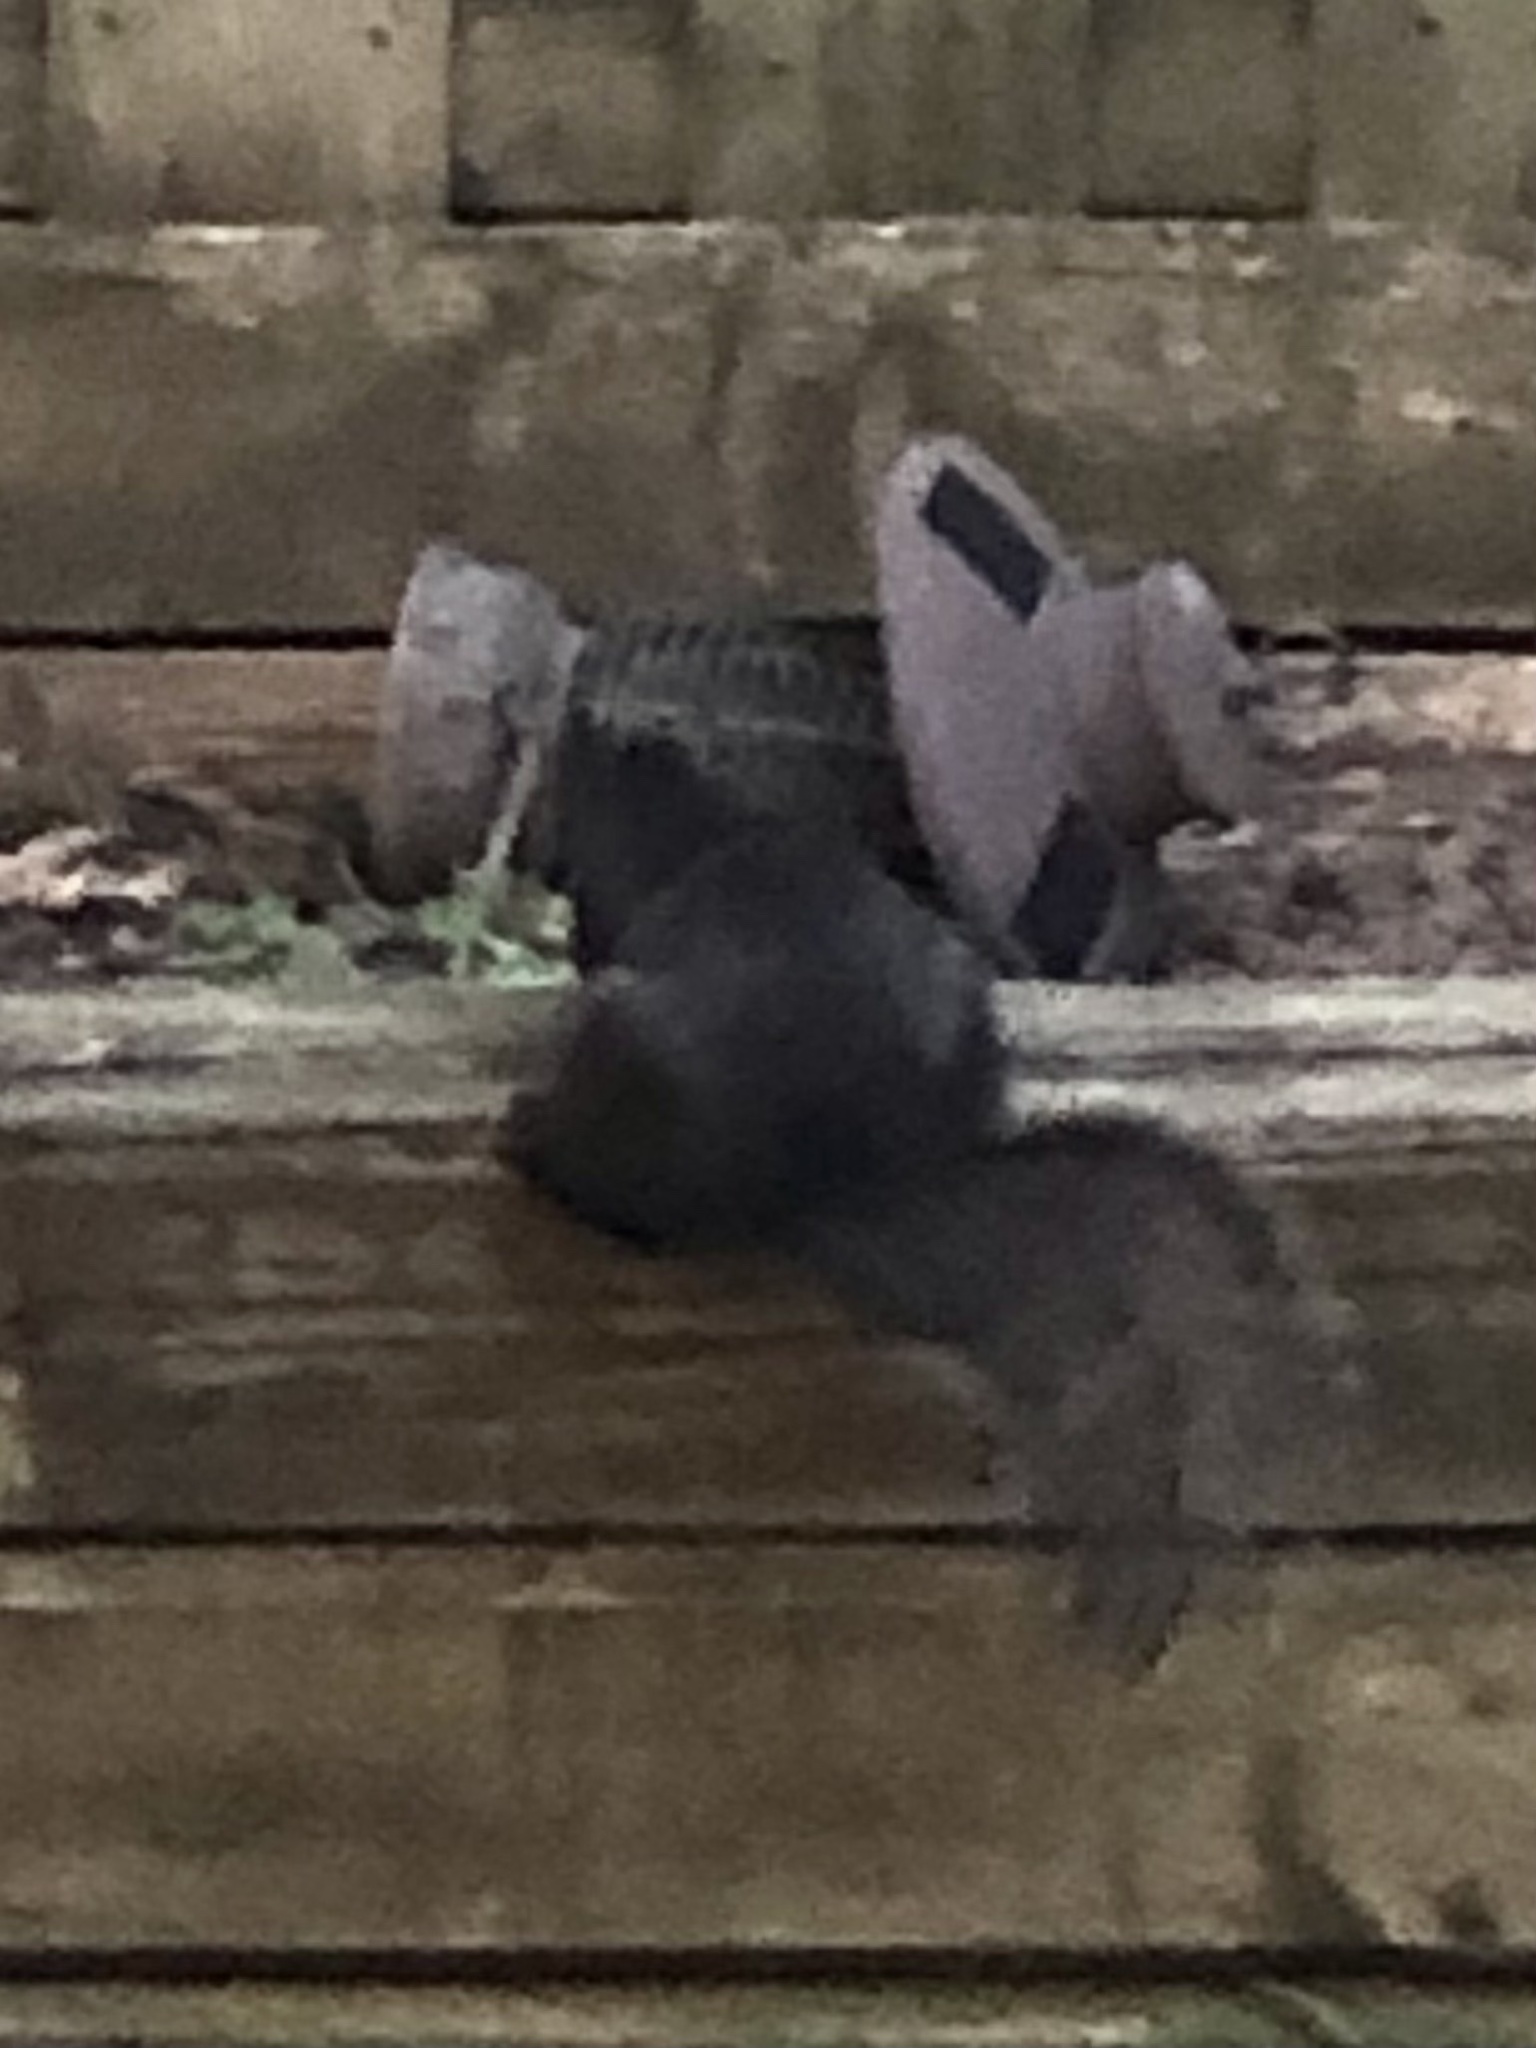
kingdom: Animalia
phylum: Chordata
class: Mammalia
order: Rodentia
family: Sciuridae
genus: Sciurus
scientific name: Sciurus carolinensis
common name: Eastern gray squirrel
